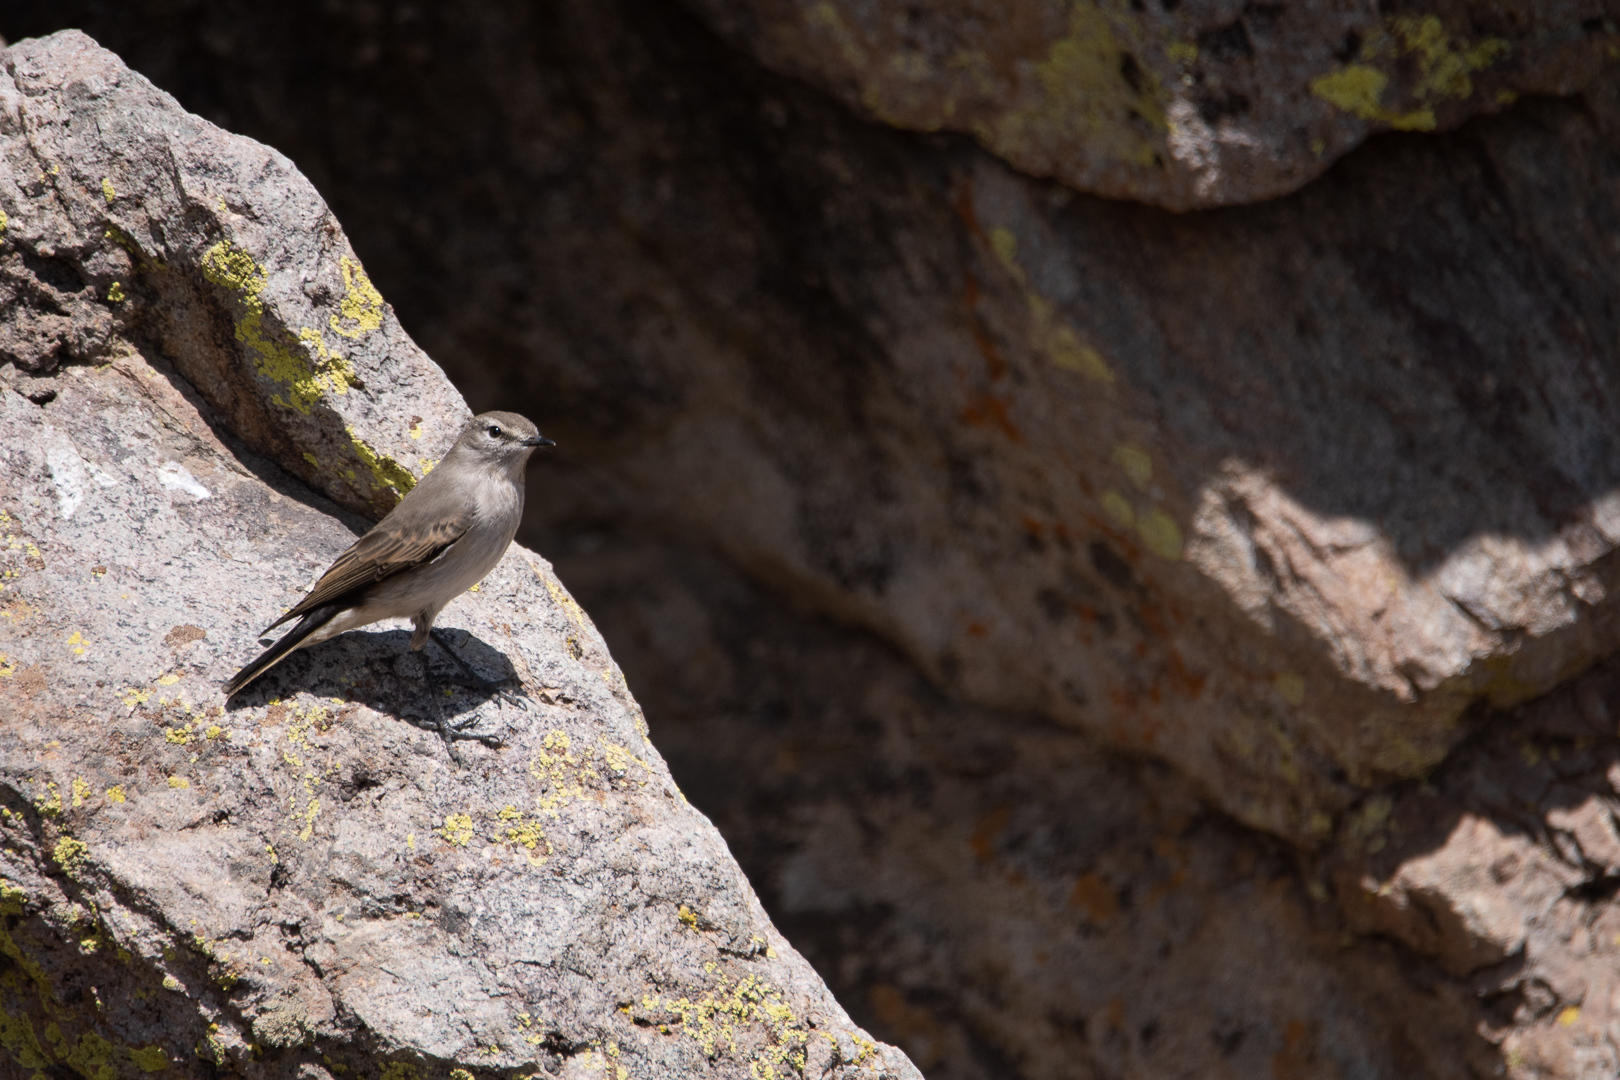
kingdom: Animalia
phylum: Chordata
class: Aves
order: Passeriformes
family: Tyrannidae
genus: Muscisaxicola
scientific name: Muscisaxicola albilora
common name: White-browed ground tyrant
